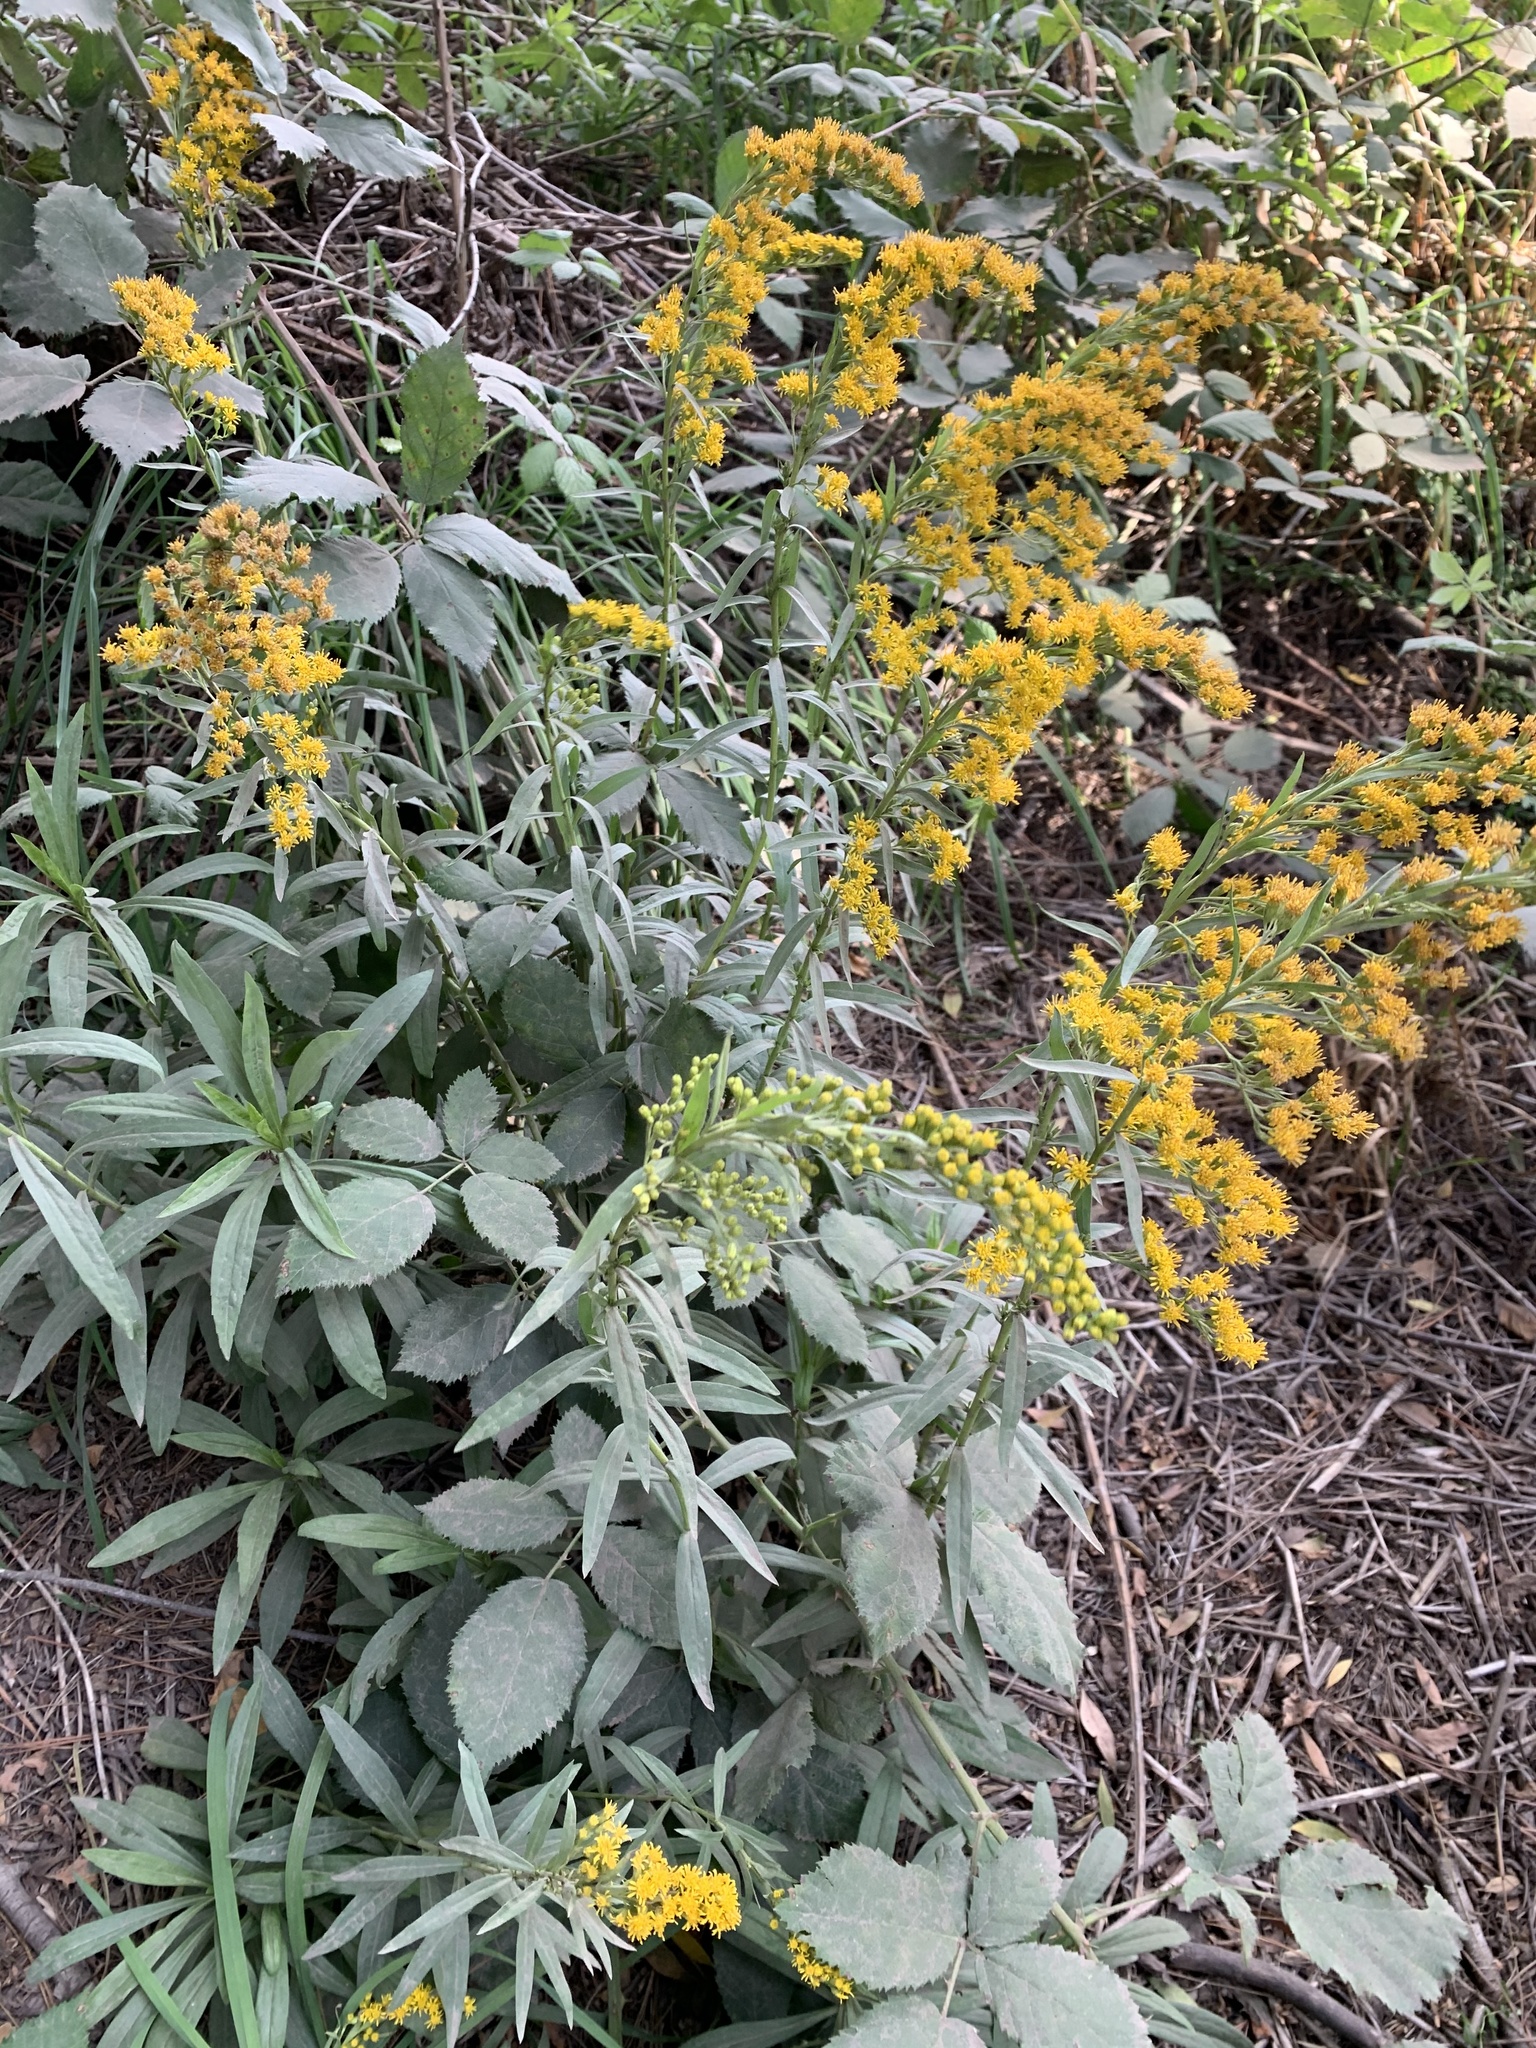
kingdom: Plantae
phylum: Tracheophyta
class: Magnoliopsida
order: Asterales
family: Asteraceae
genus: Solidago
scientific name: Solidago chilensis
